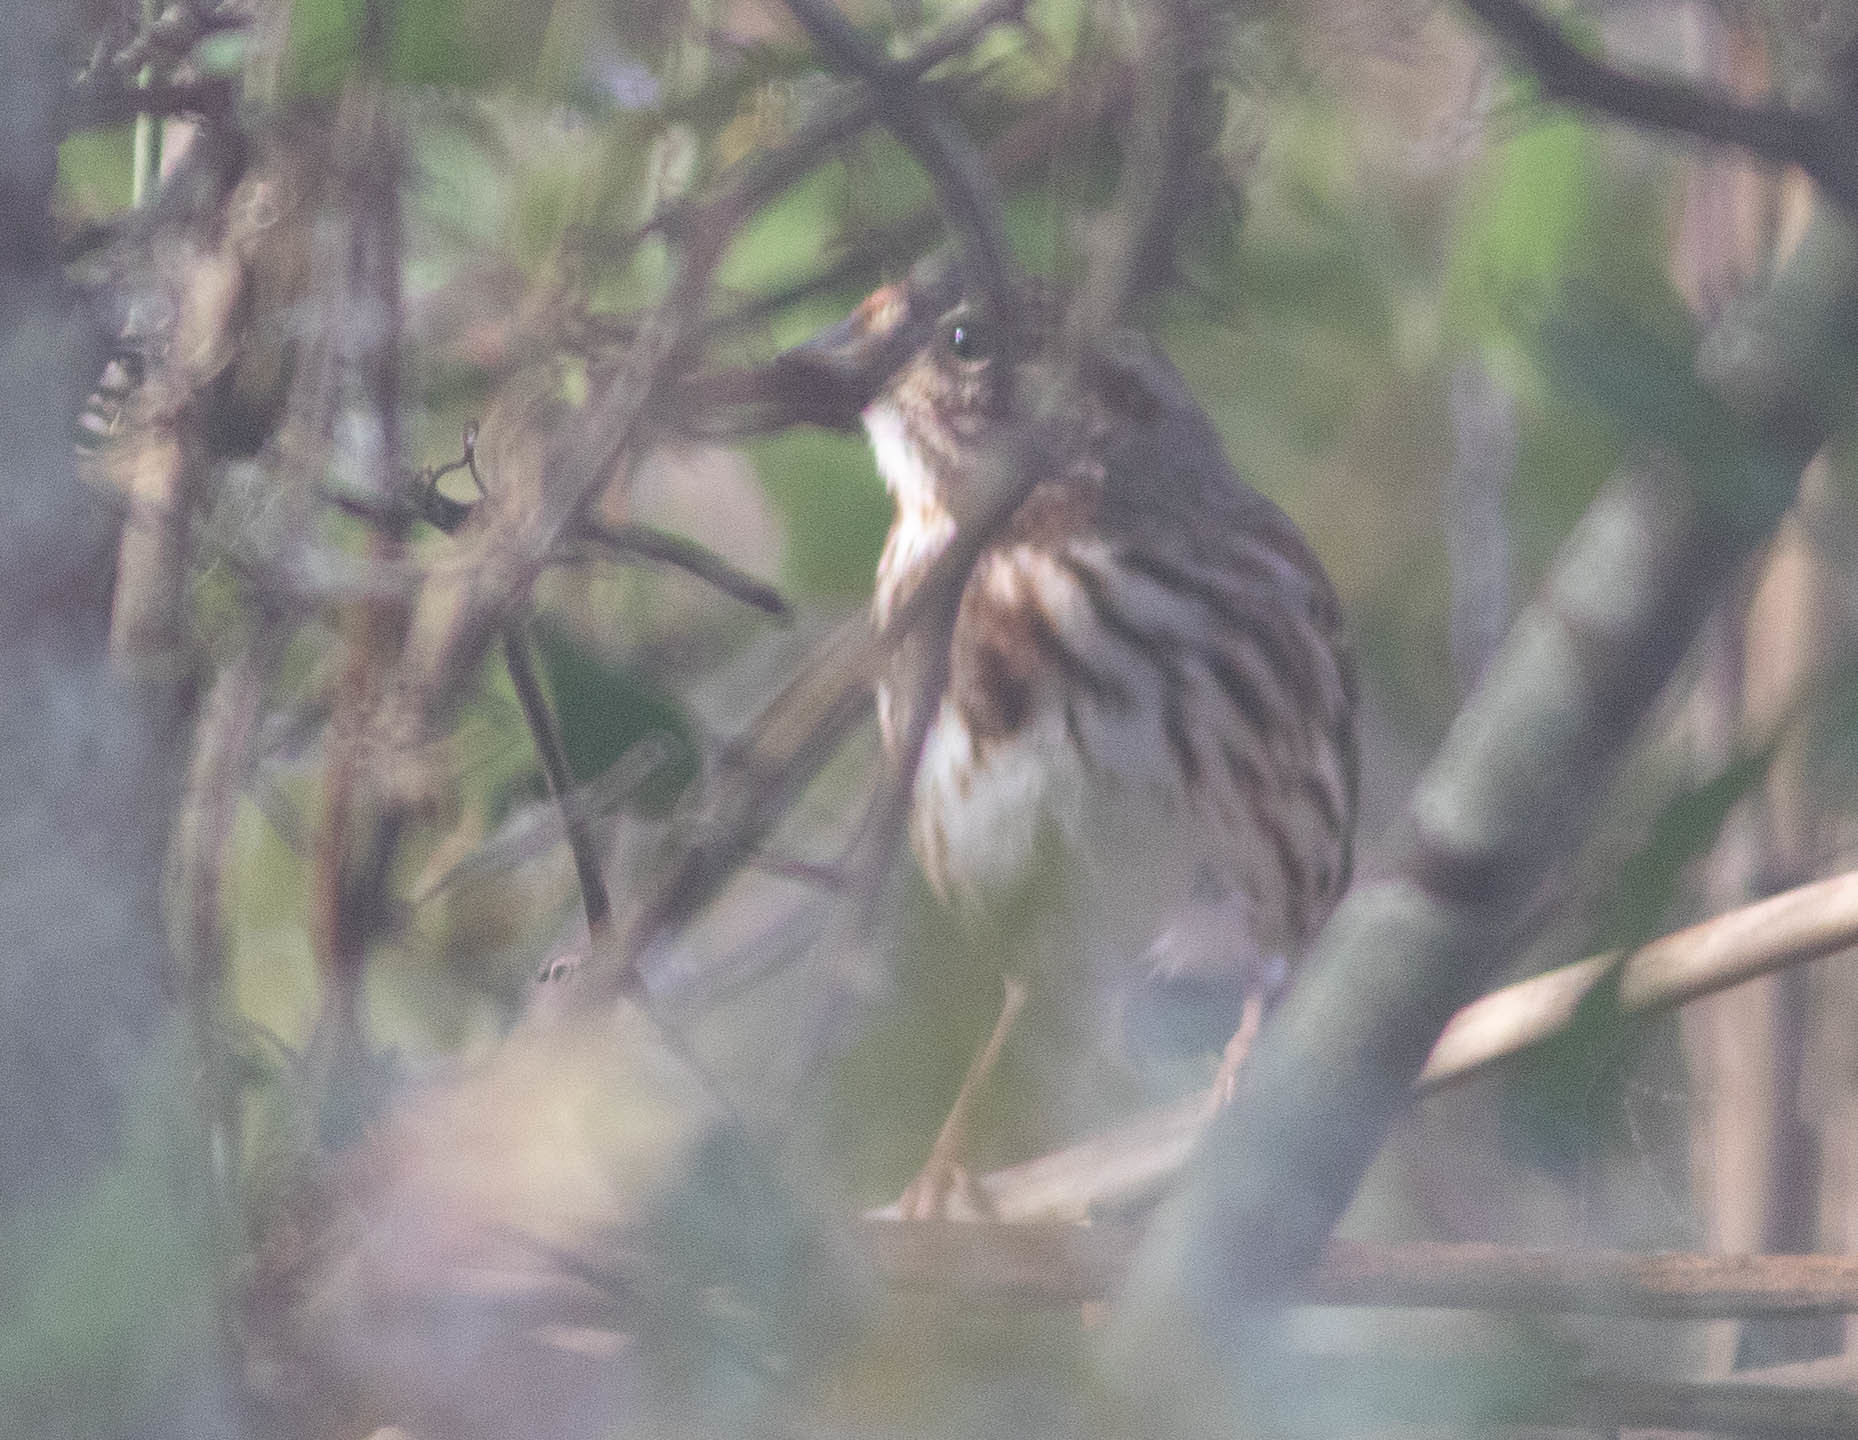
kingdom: Animalia
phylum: Chordata
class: Aves
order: Passeriformes
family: Passerellidae
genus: Melospiza
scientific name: Melospiza melodia
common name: Song sparrow
